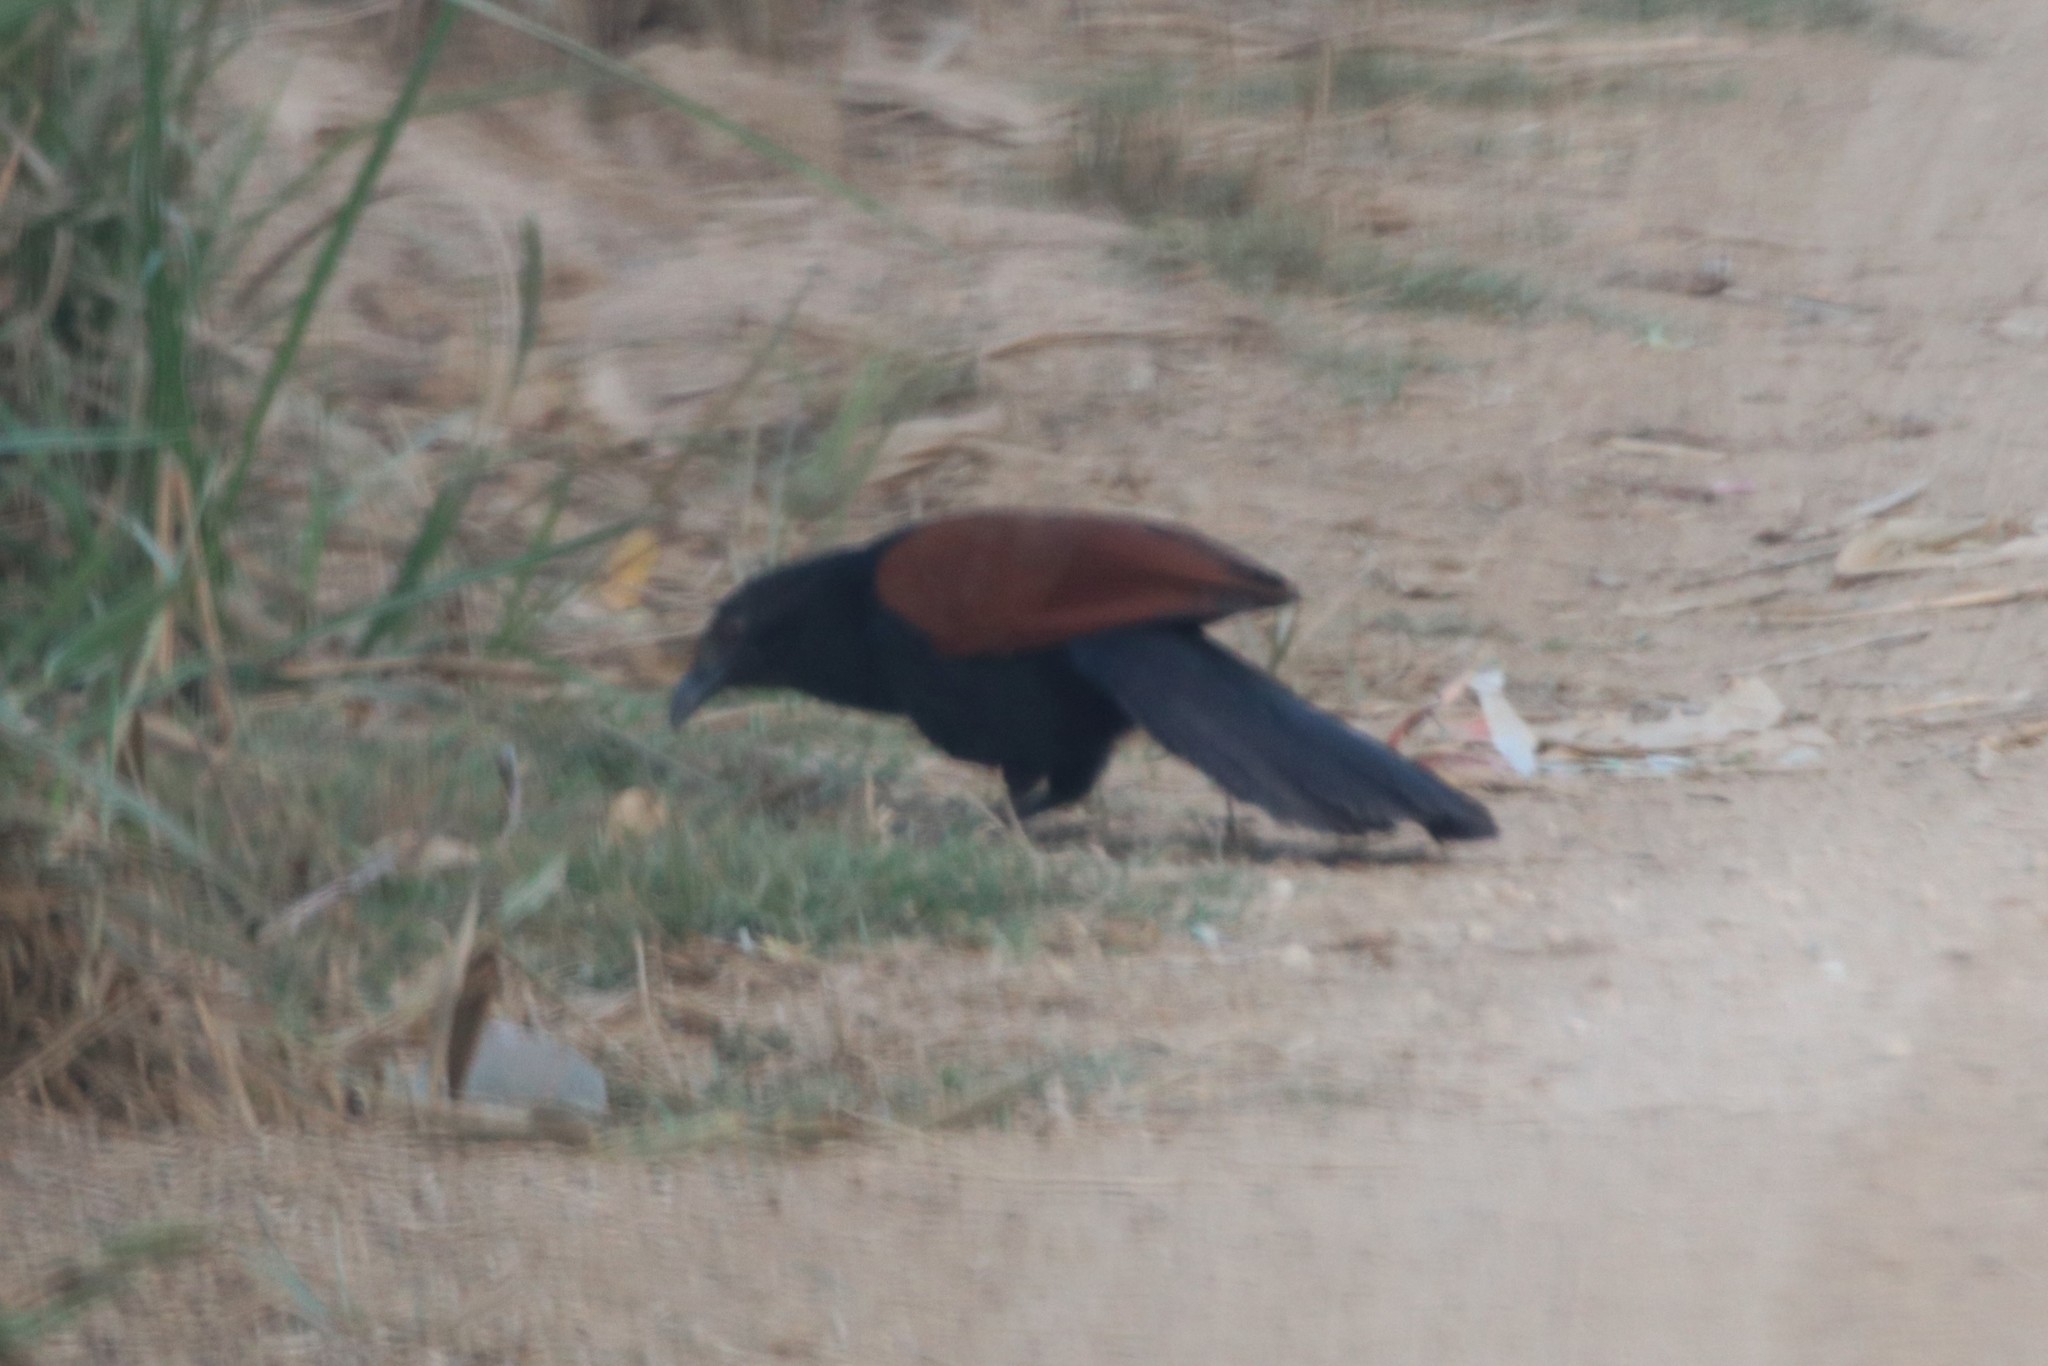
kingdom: Animalia
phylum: Chordata
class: Aves
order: Cuculiformes
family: Cuculidae
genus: Centropus
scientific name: Centropus sinensis
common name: Greater coucal
